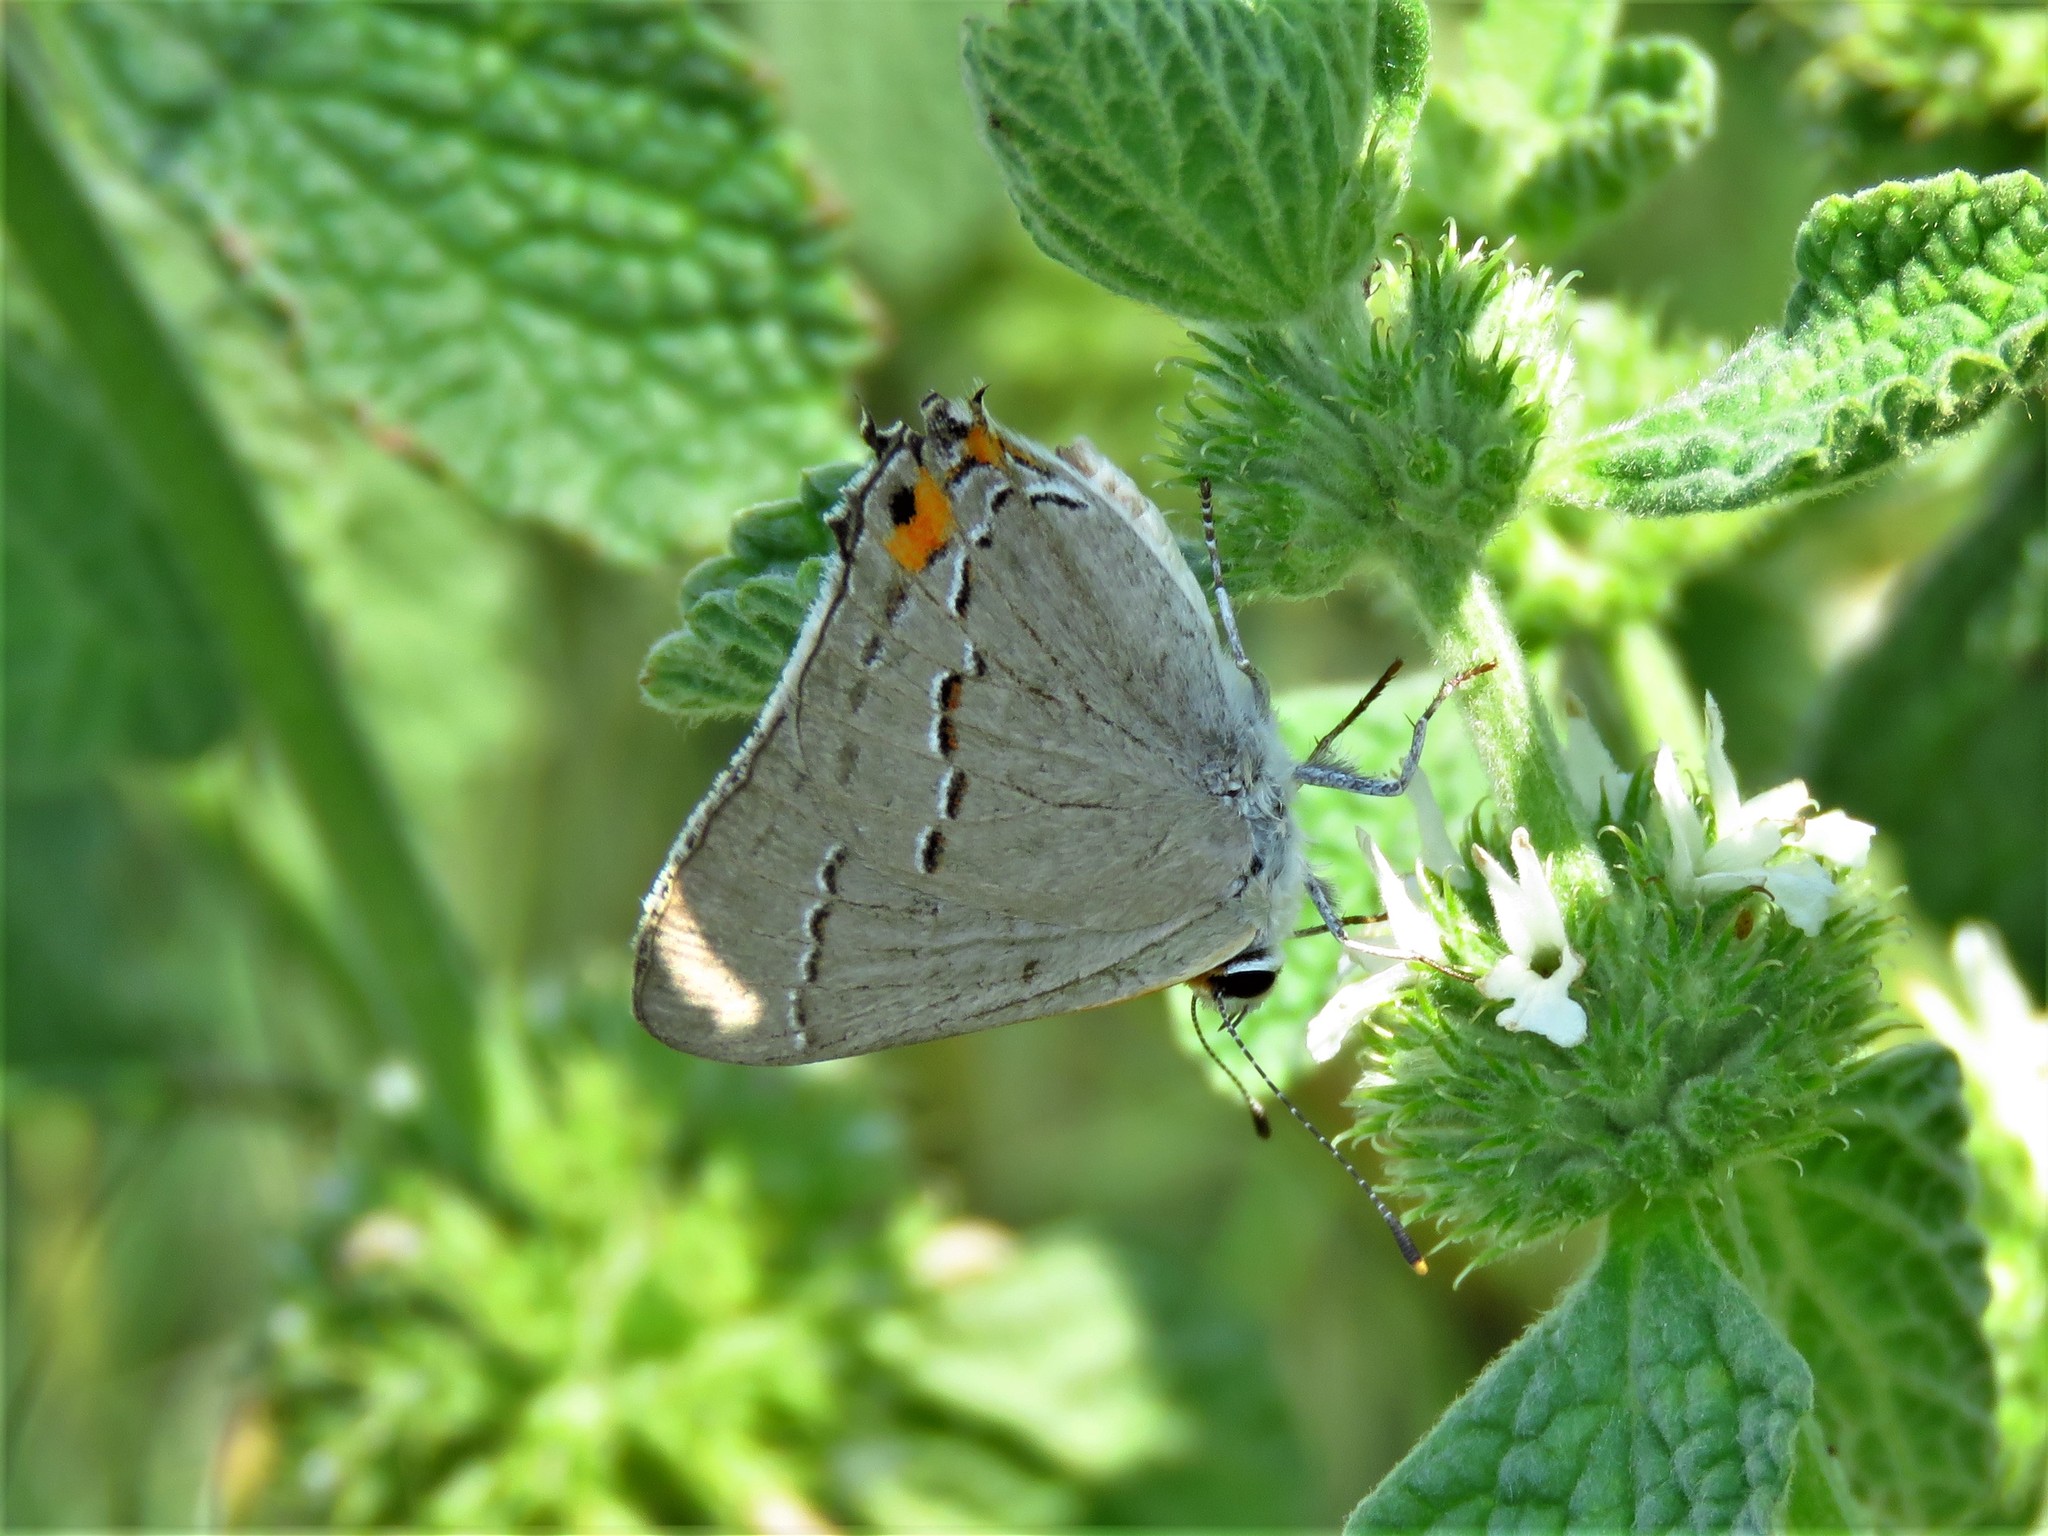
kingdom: Animalia
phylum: Arthropoda
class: Insecta
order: Lepidoptera
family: Lycaenidae
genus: Strymon
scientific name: Strymon melinus
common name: Gray hairstreak
